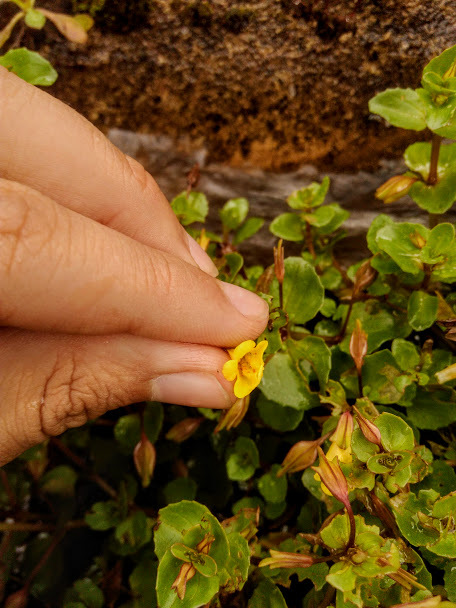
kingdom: Plantae
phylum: Tracheophyta
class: Magnoliopsida
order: Lamiales
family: Phrymaceae
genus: Erythranthe
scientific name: Erythranthe glabrata
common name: Round-leaved monkeyflower
